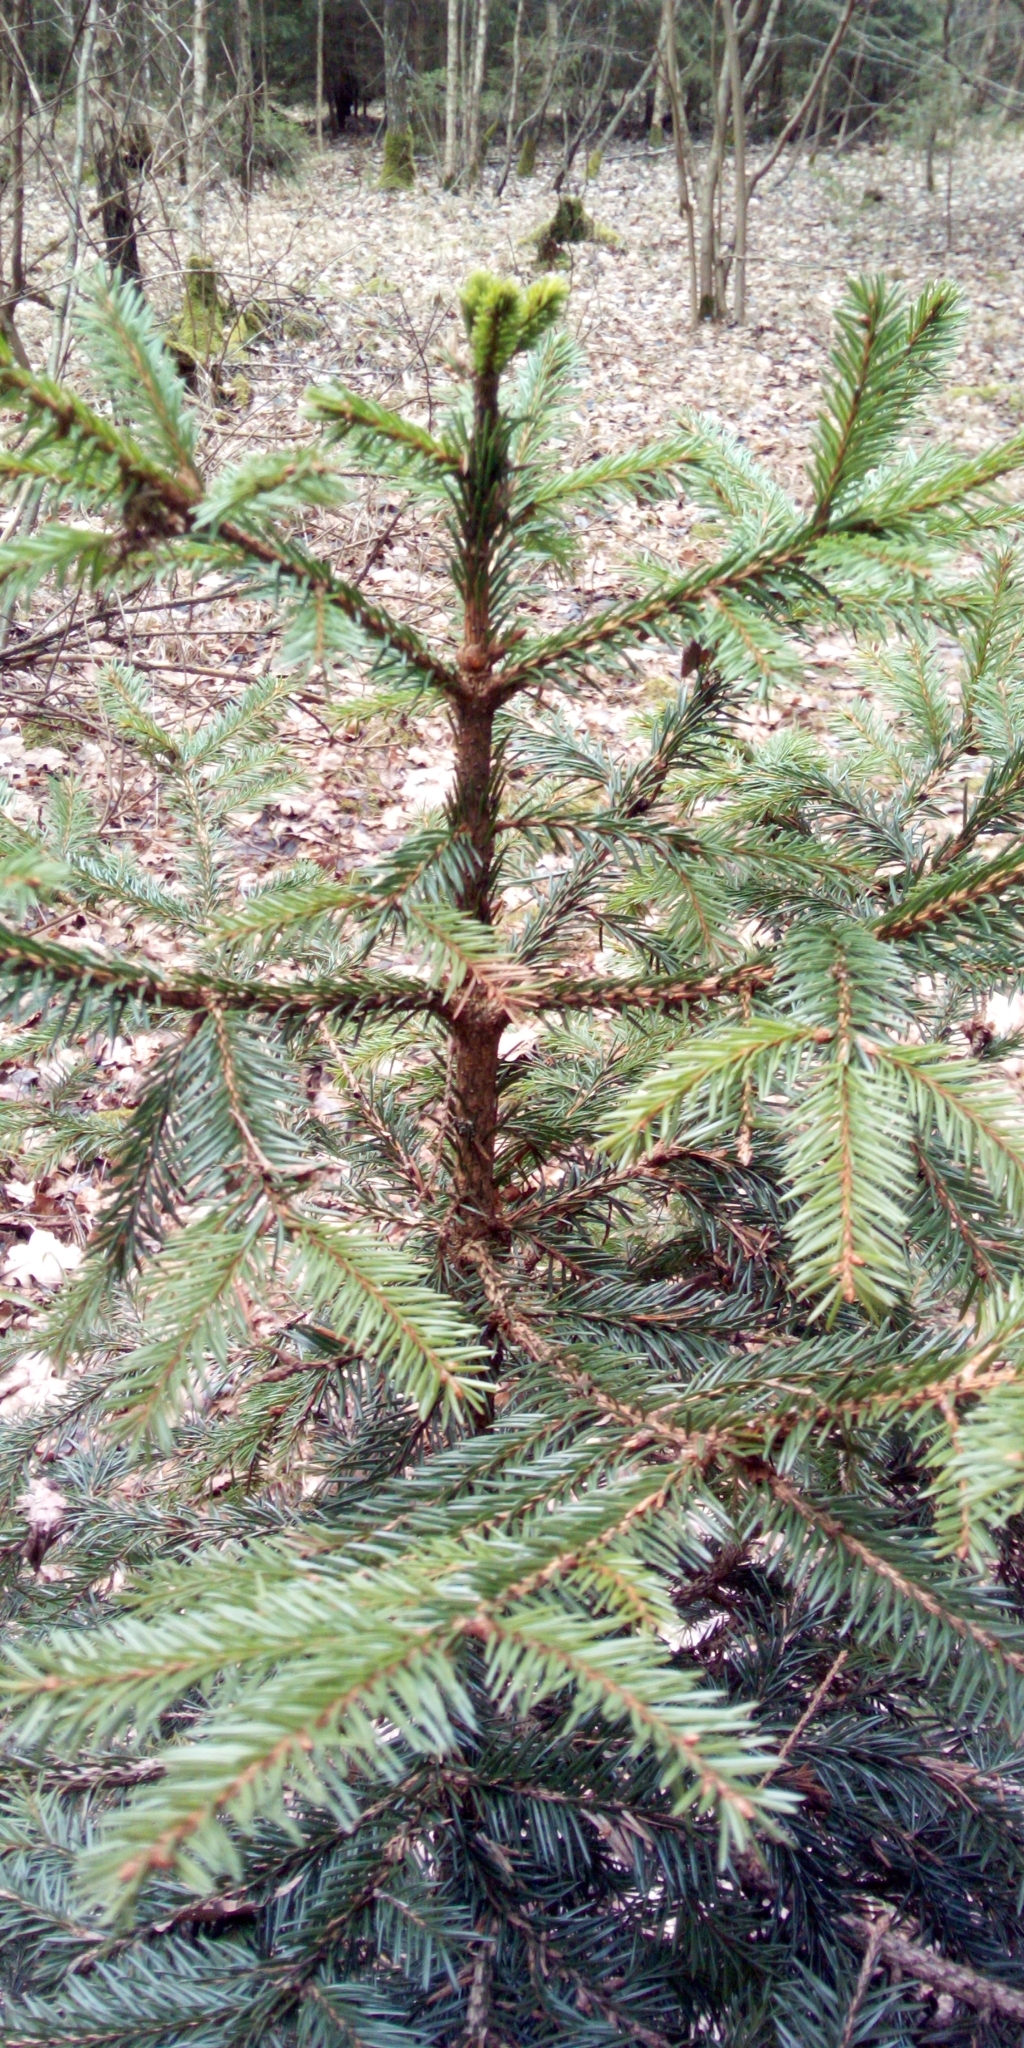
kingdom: Plantae
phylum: Tracheophyta
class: Pinopsida
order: Pinales
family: Pinaceae
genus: Picea
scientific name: Picea abies
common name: Norway spruce
